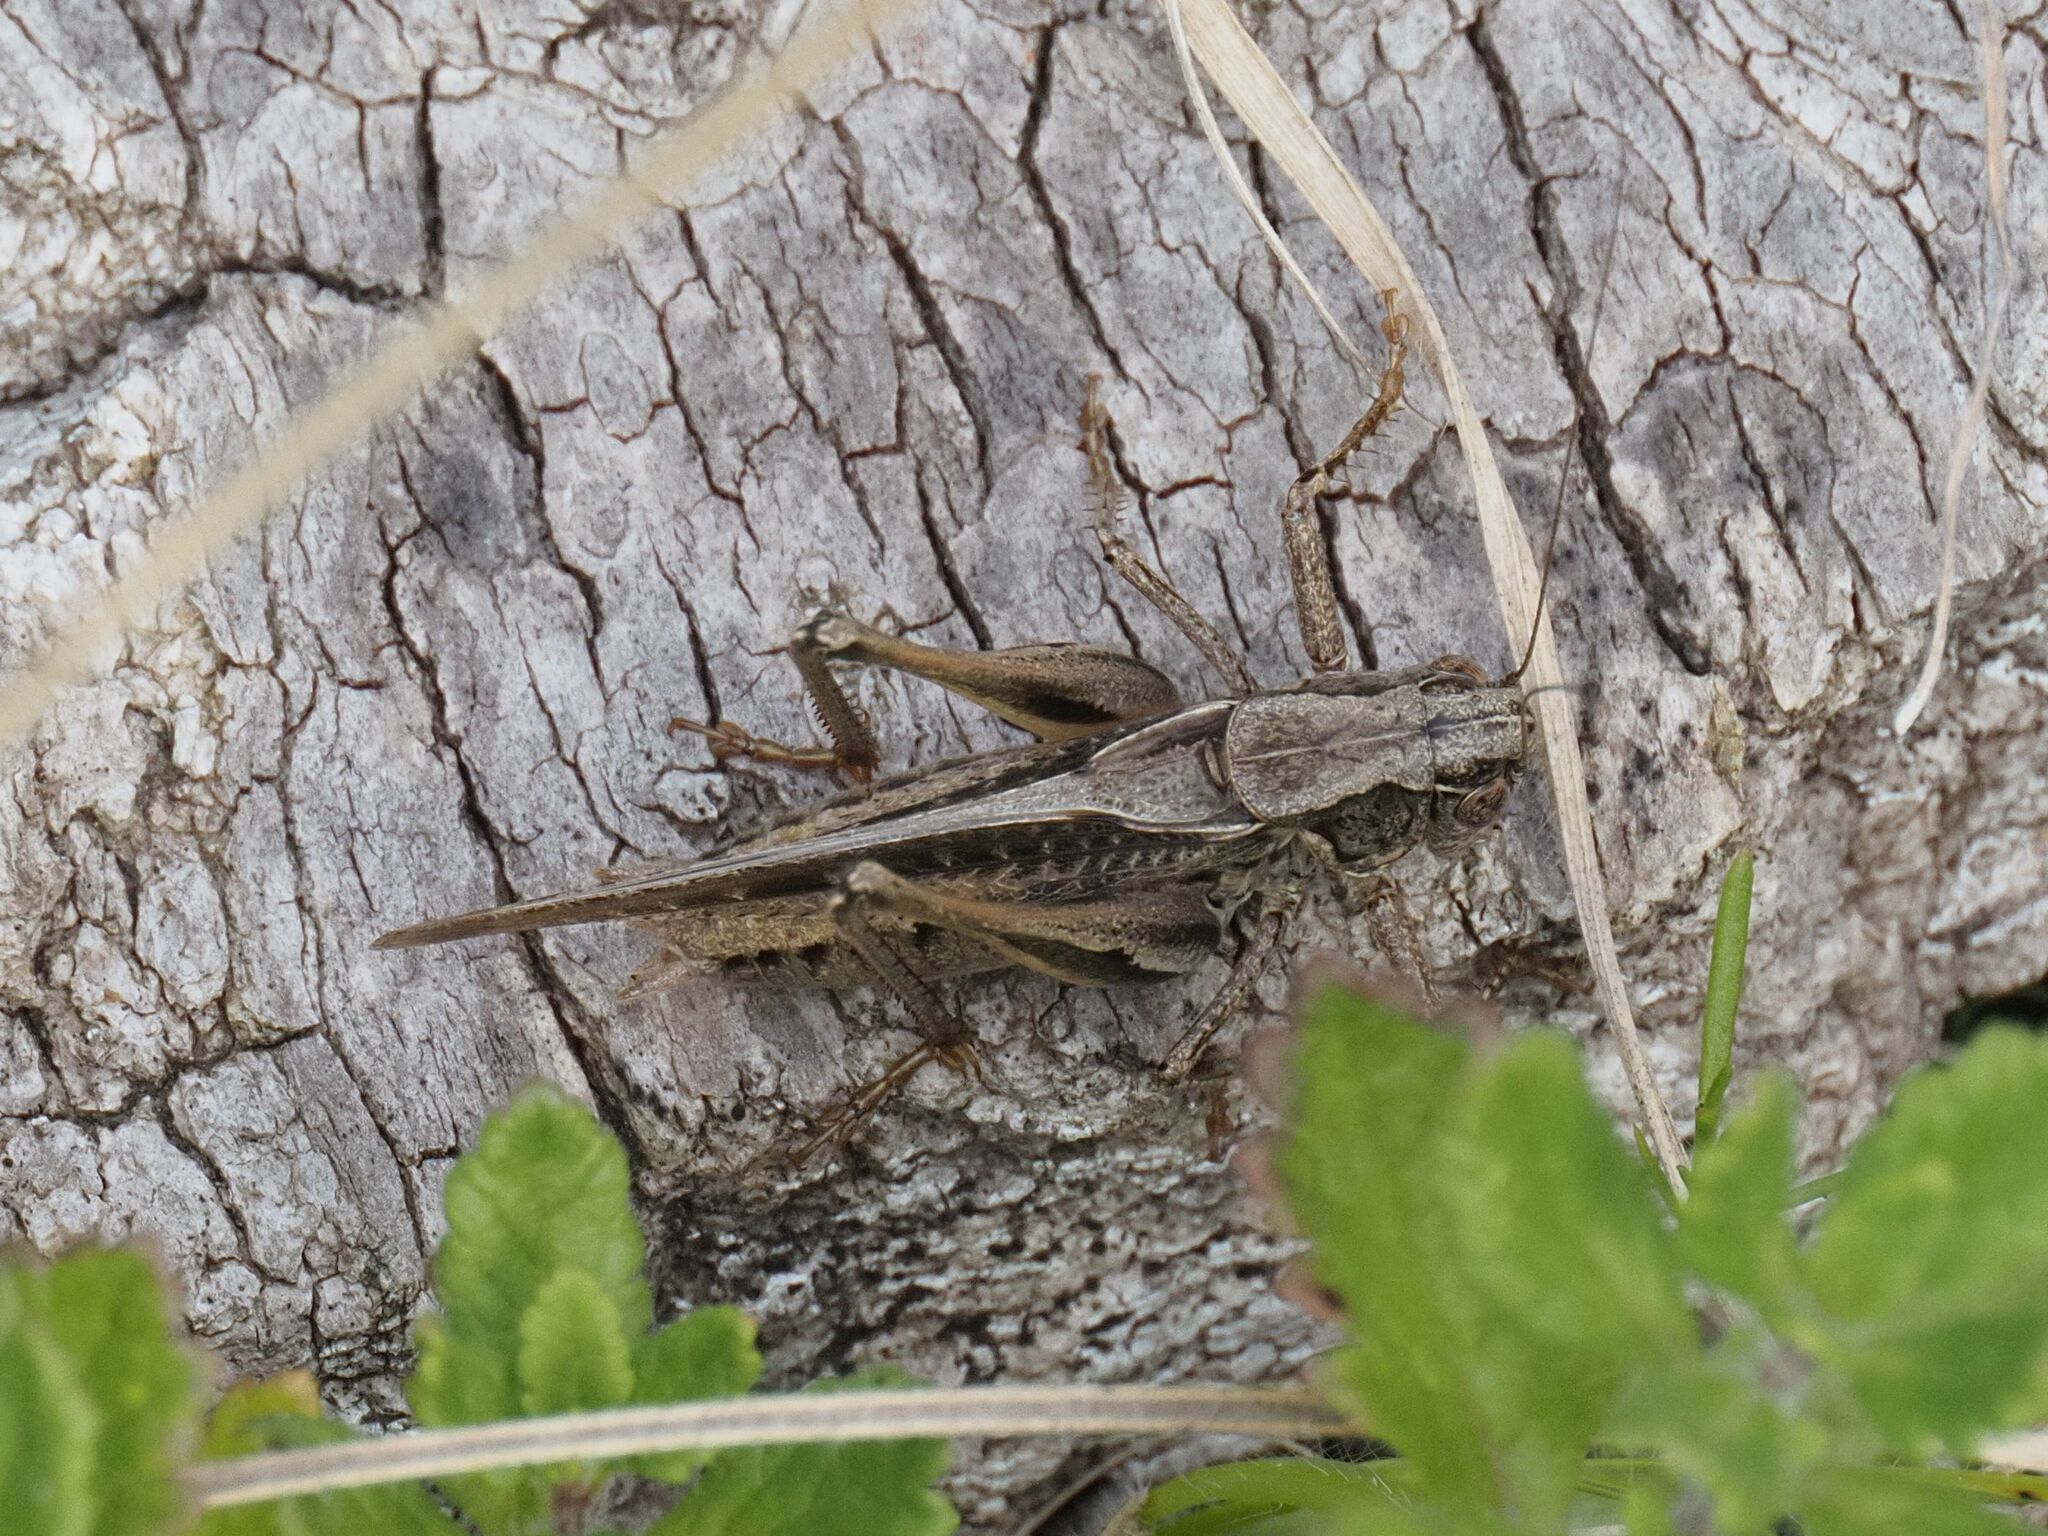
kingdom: Animalia
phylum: Arthropoda
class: Insecta
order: Orthoptera
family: Tettigoniidae
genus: Platycleis
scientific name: Platycleis grisea
